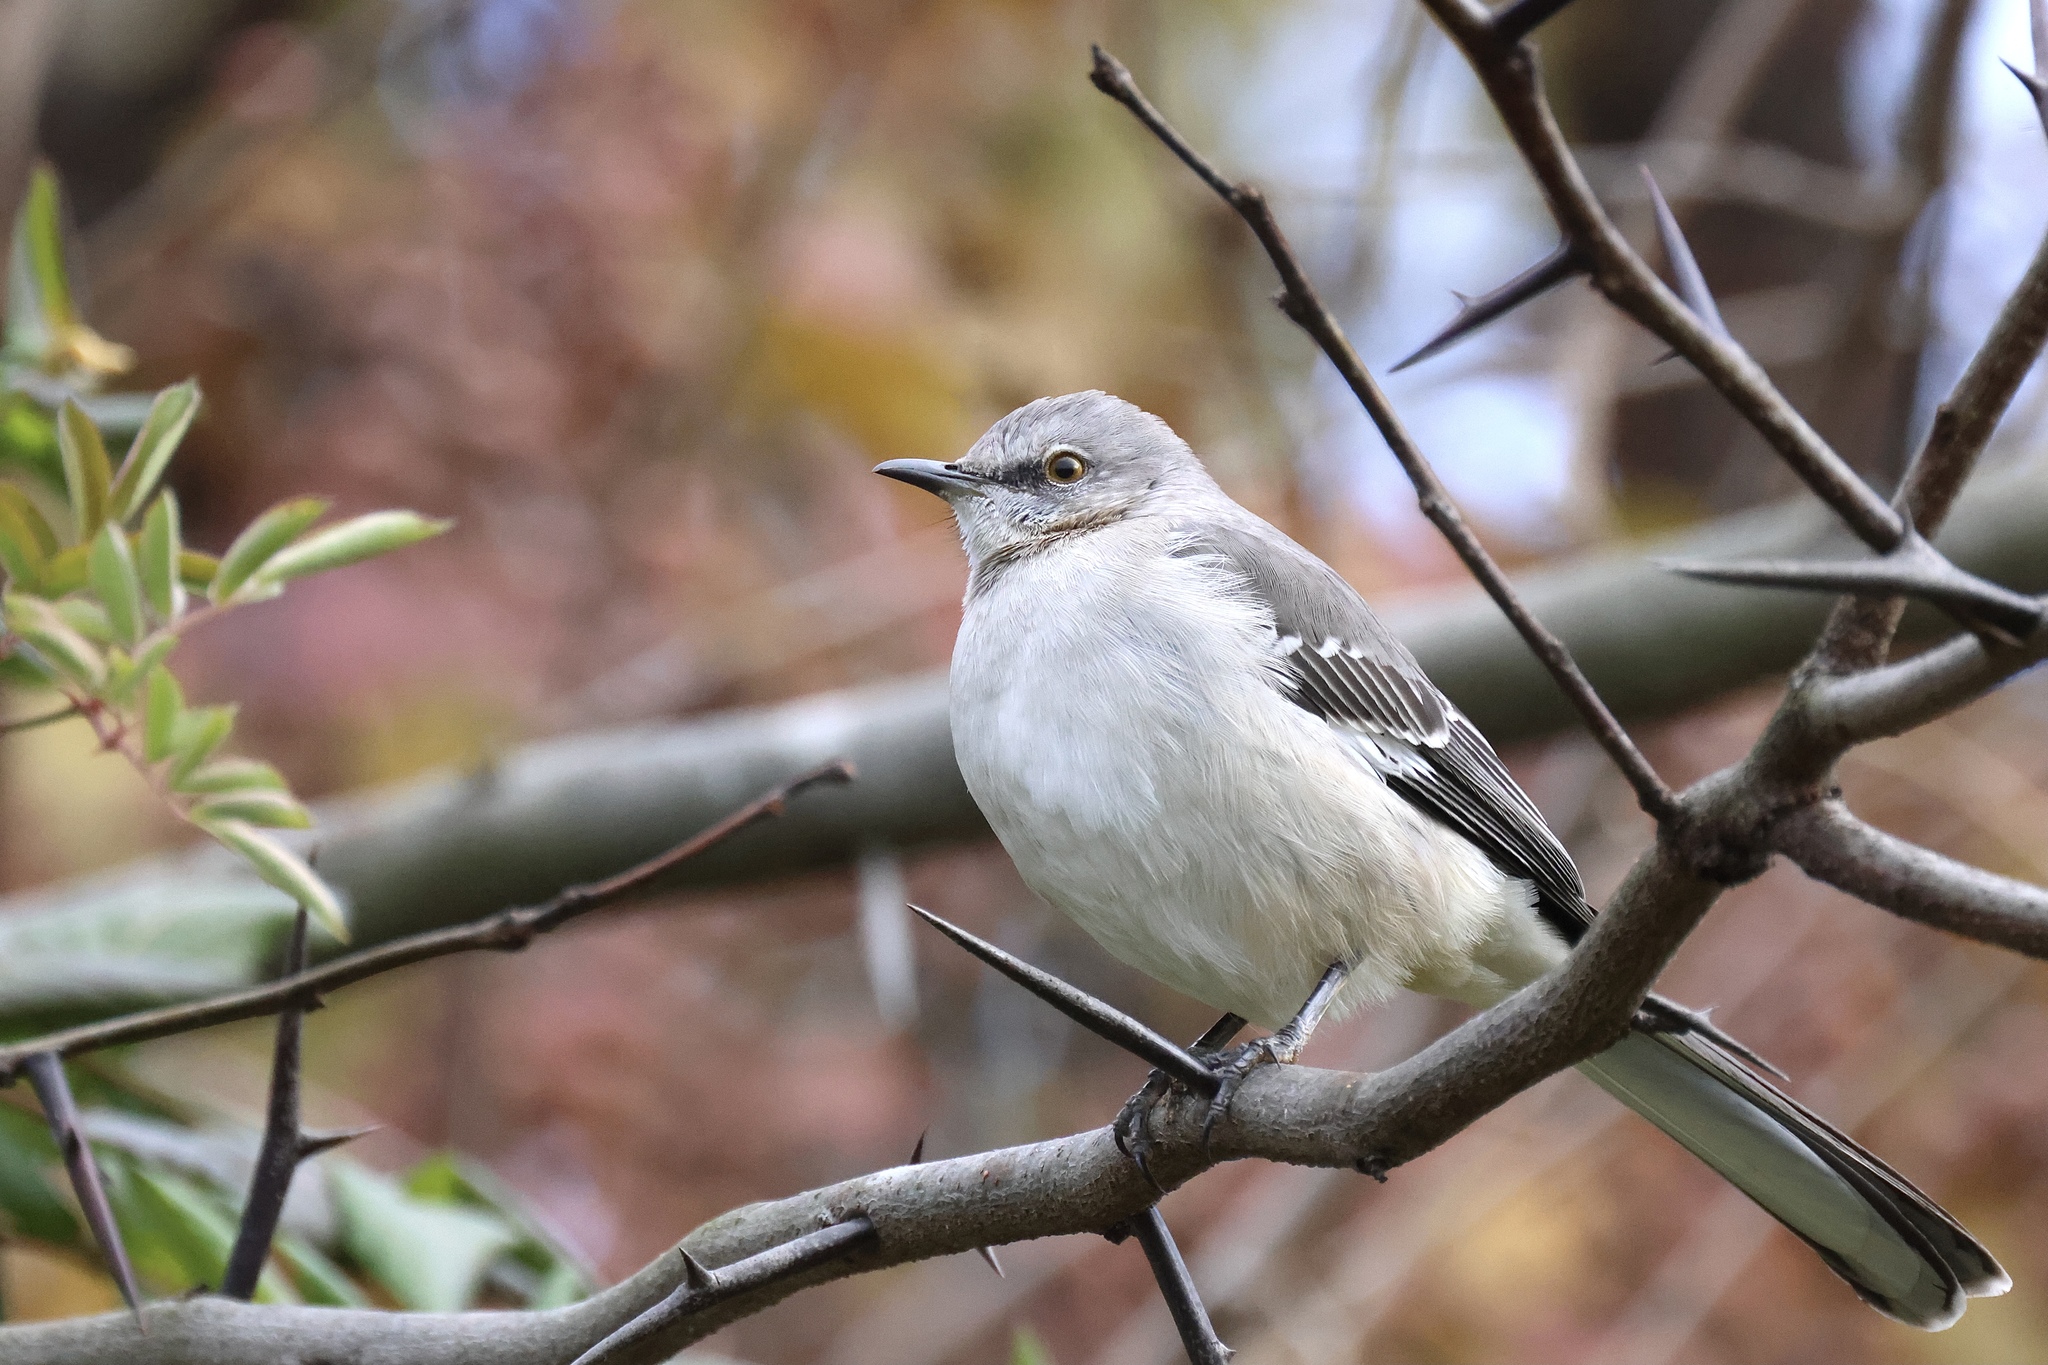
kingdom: Animalia
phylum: Chordata
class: Aves
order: Passeriformes
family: Mimidae
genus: Mimus
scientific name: Mimus polyglottos
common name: Northern mockingbird
